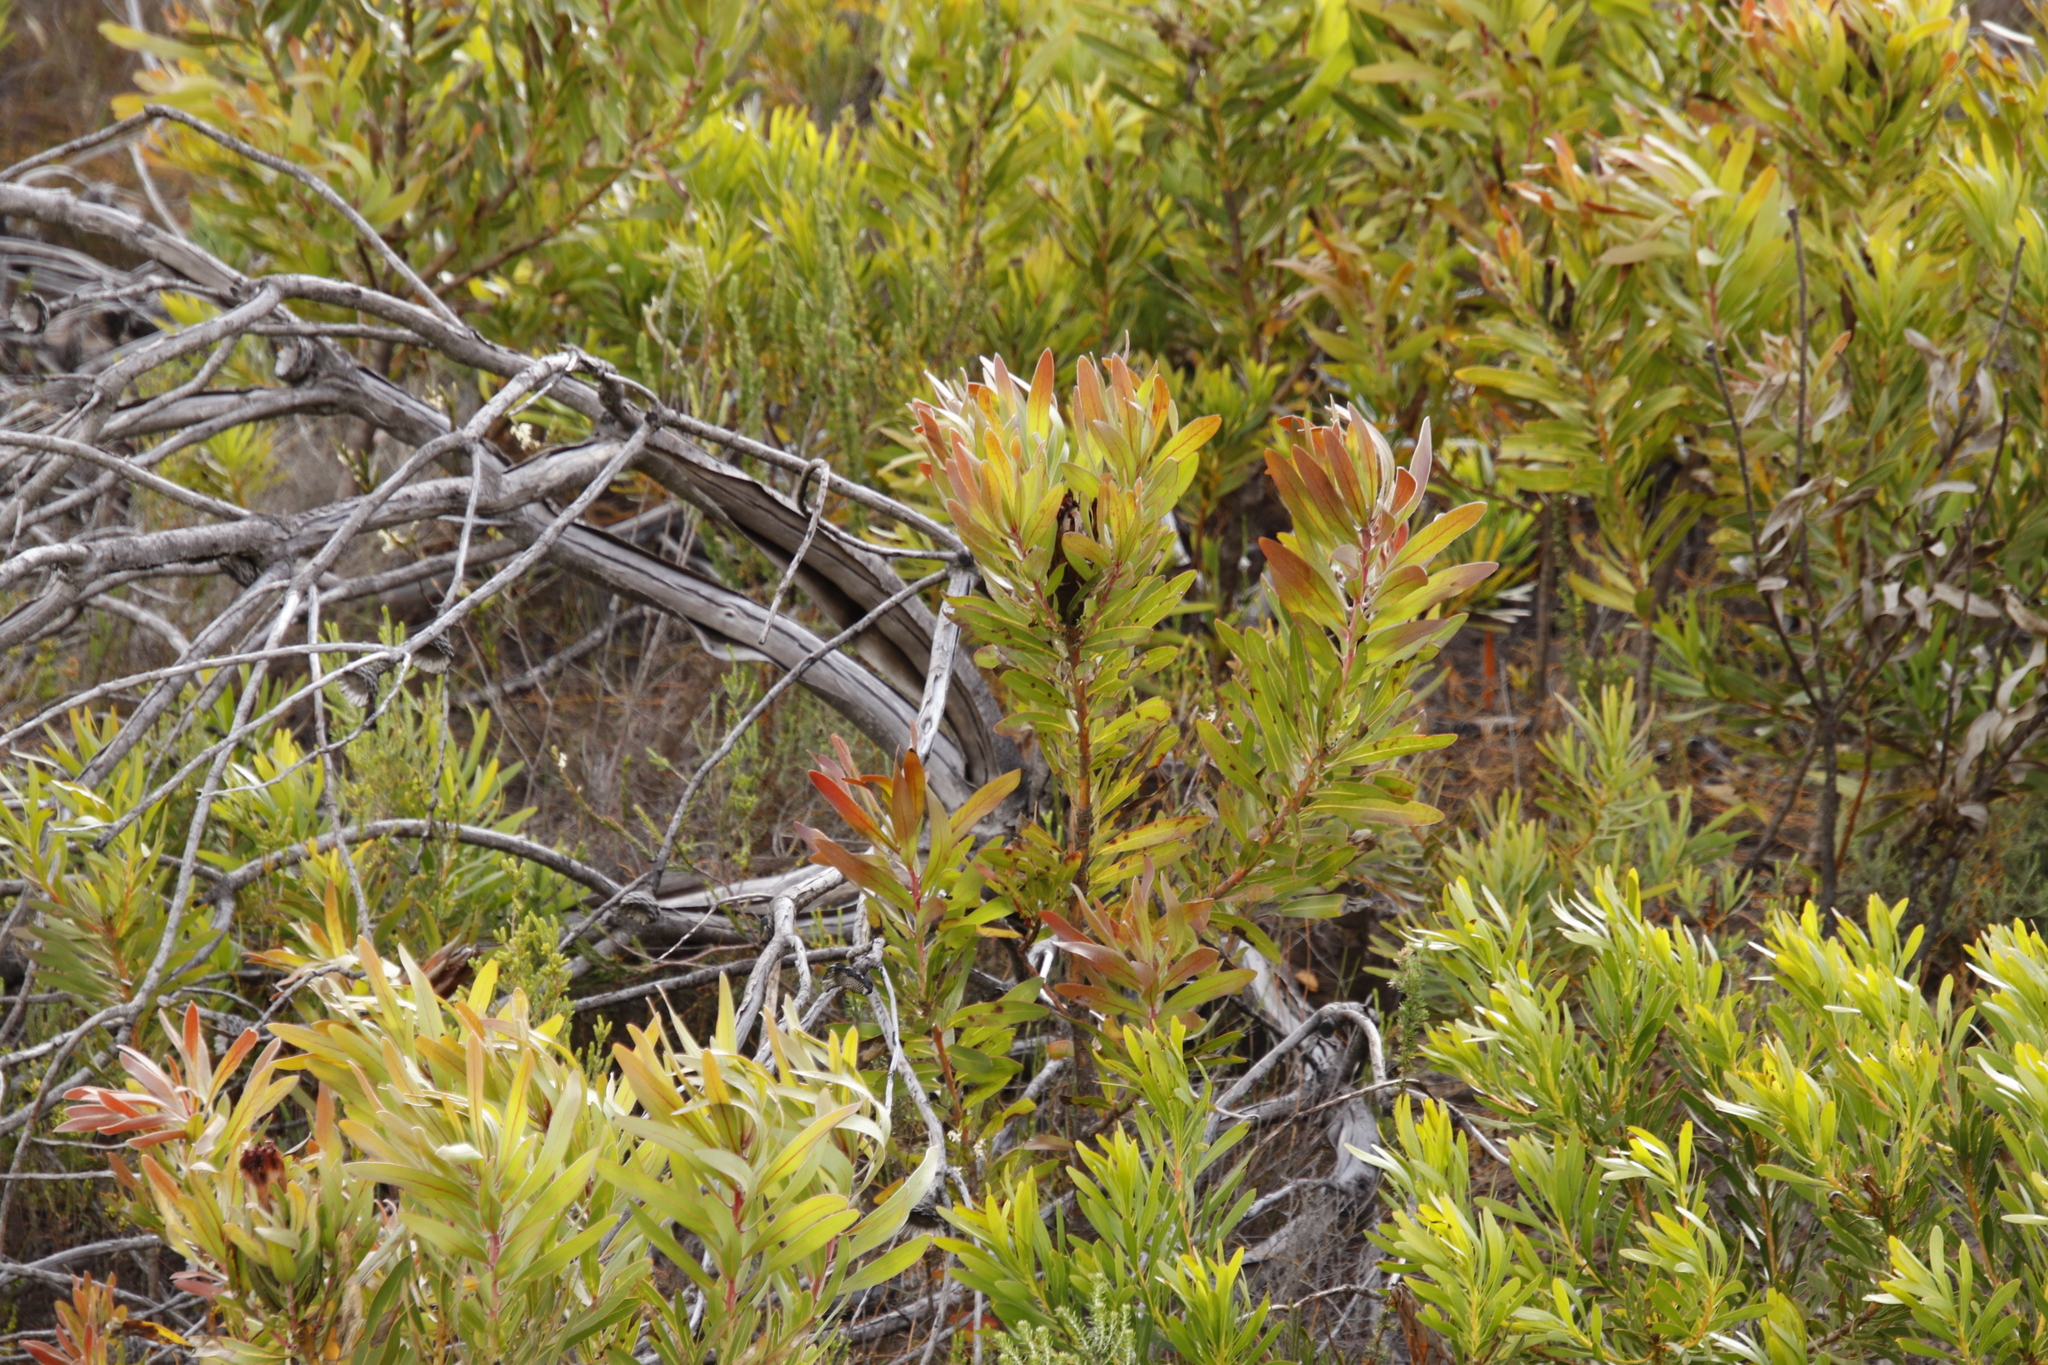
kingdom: Plantae
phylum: Tracheophyta
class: Magnoliopsida
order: Proteales
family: Proteaceae
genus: Protea
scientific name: Protea lepidocarpodendron
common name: Black-bearded protea
